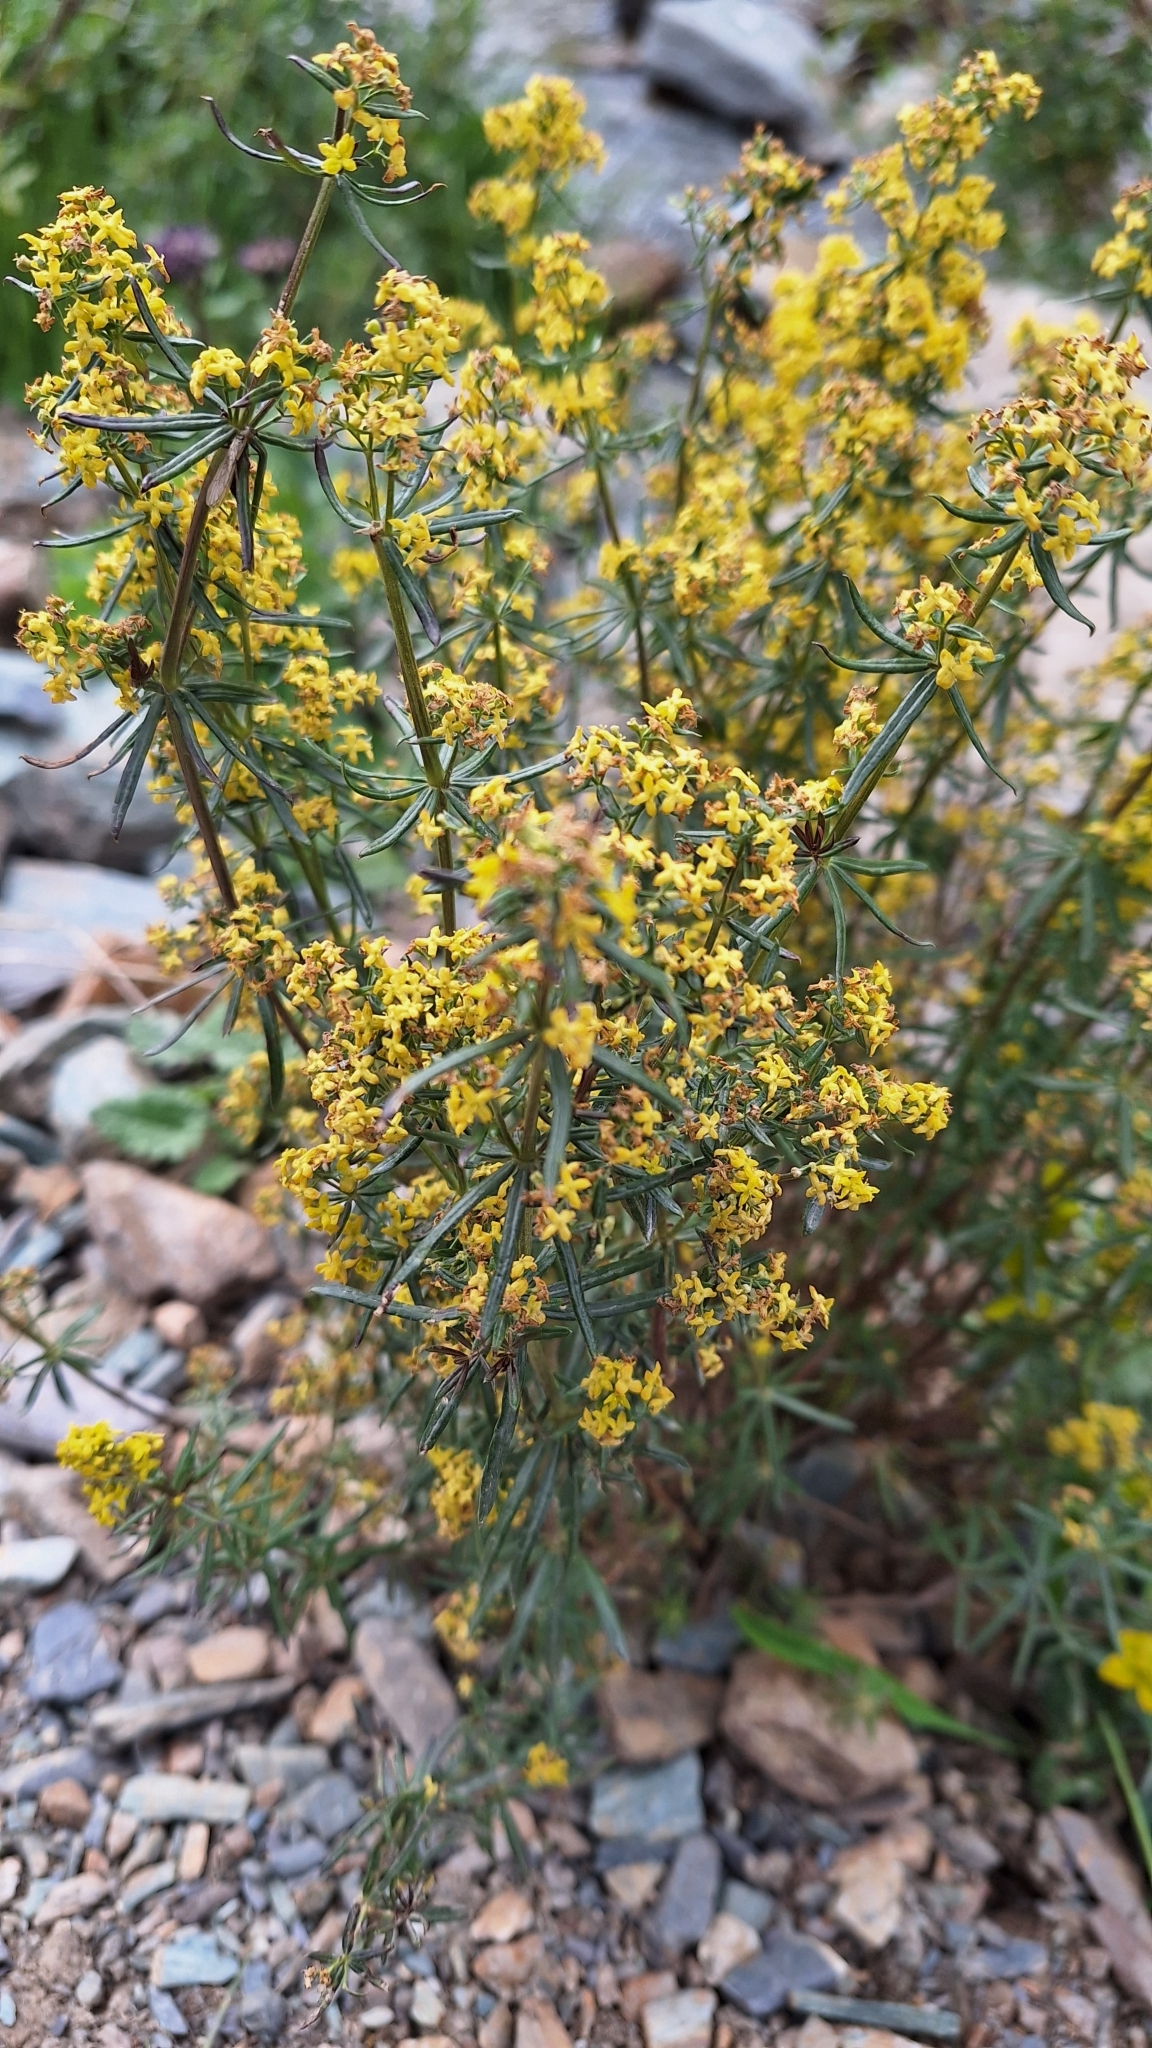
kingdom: Plantae
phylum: Tracheophyta
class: Magnoliopsida
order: Gentianales
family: Rubiaceae
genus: Galium
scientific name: Galium verum
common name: Lady's bedstraw
